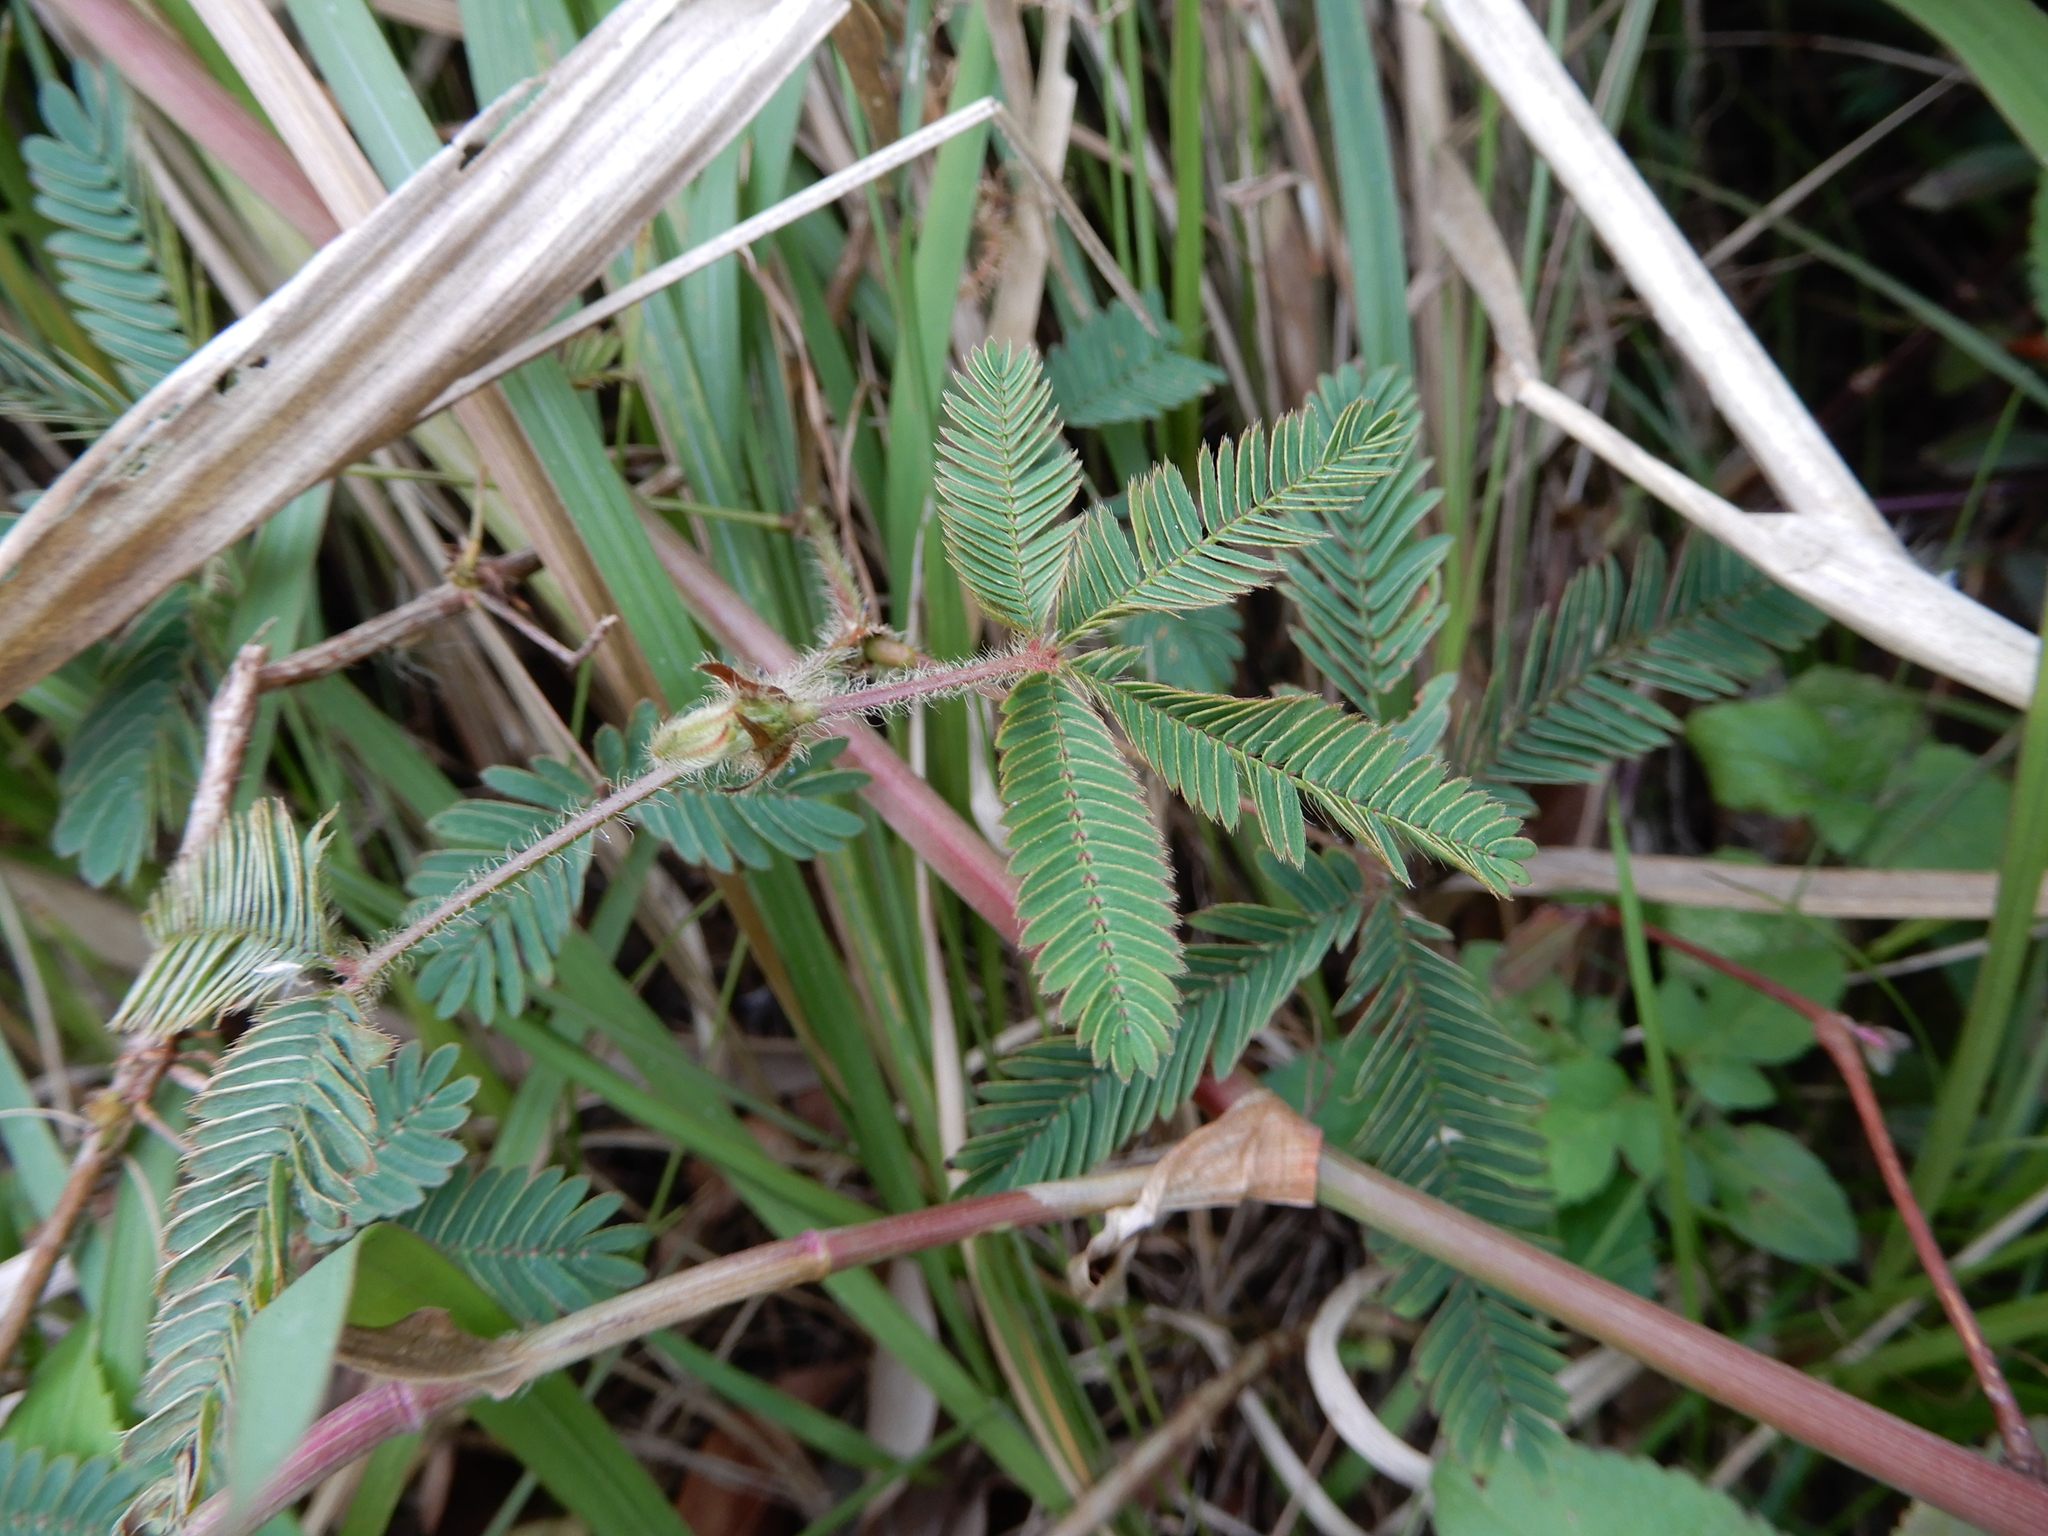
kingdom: Plantae
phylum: Tracheophyta
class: Magnoliopsida
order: Fabales
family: Fabaceae
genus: Mimosa
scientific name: Mimosa pudica
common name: Sensitive plant
